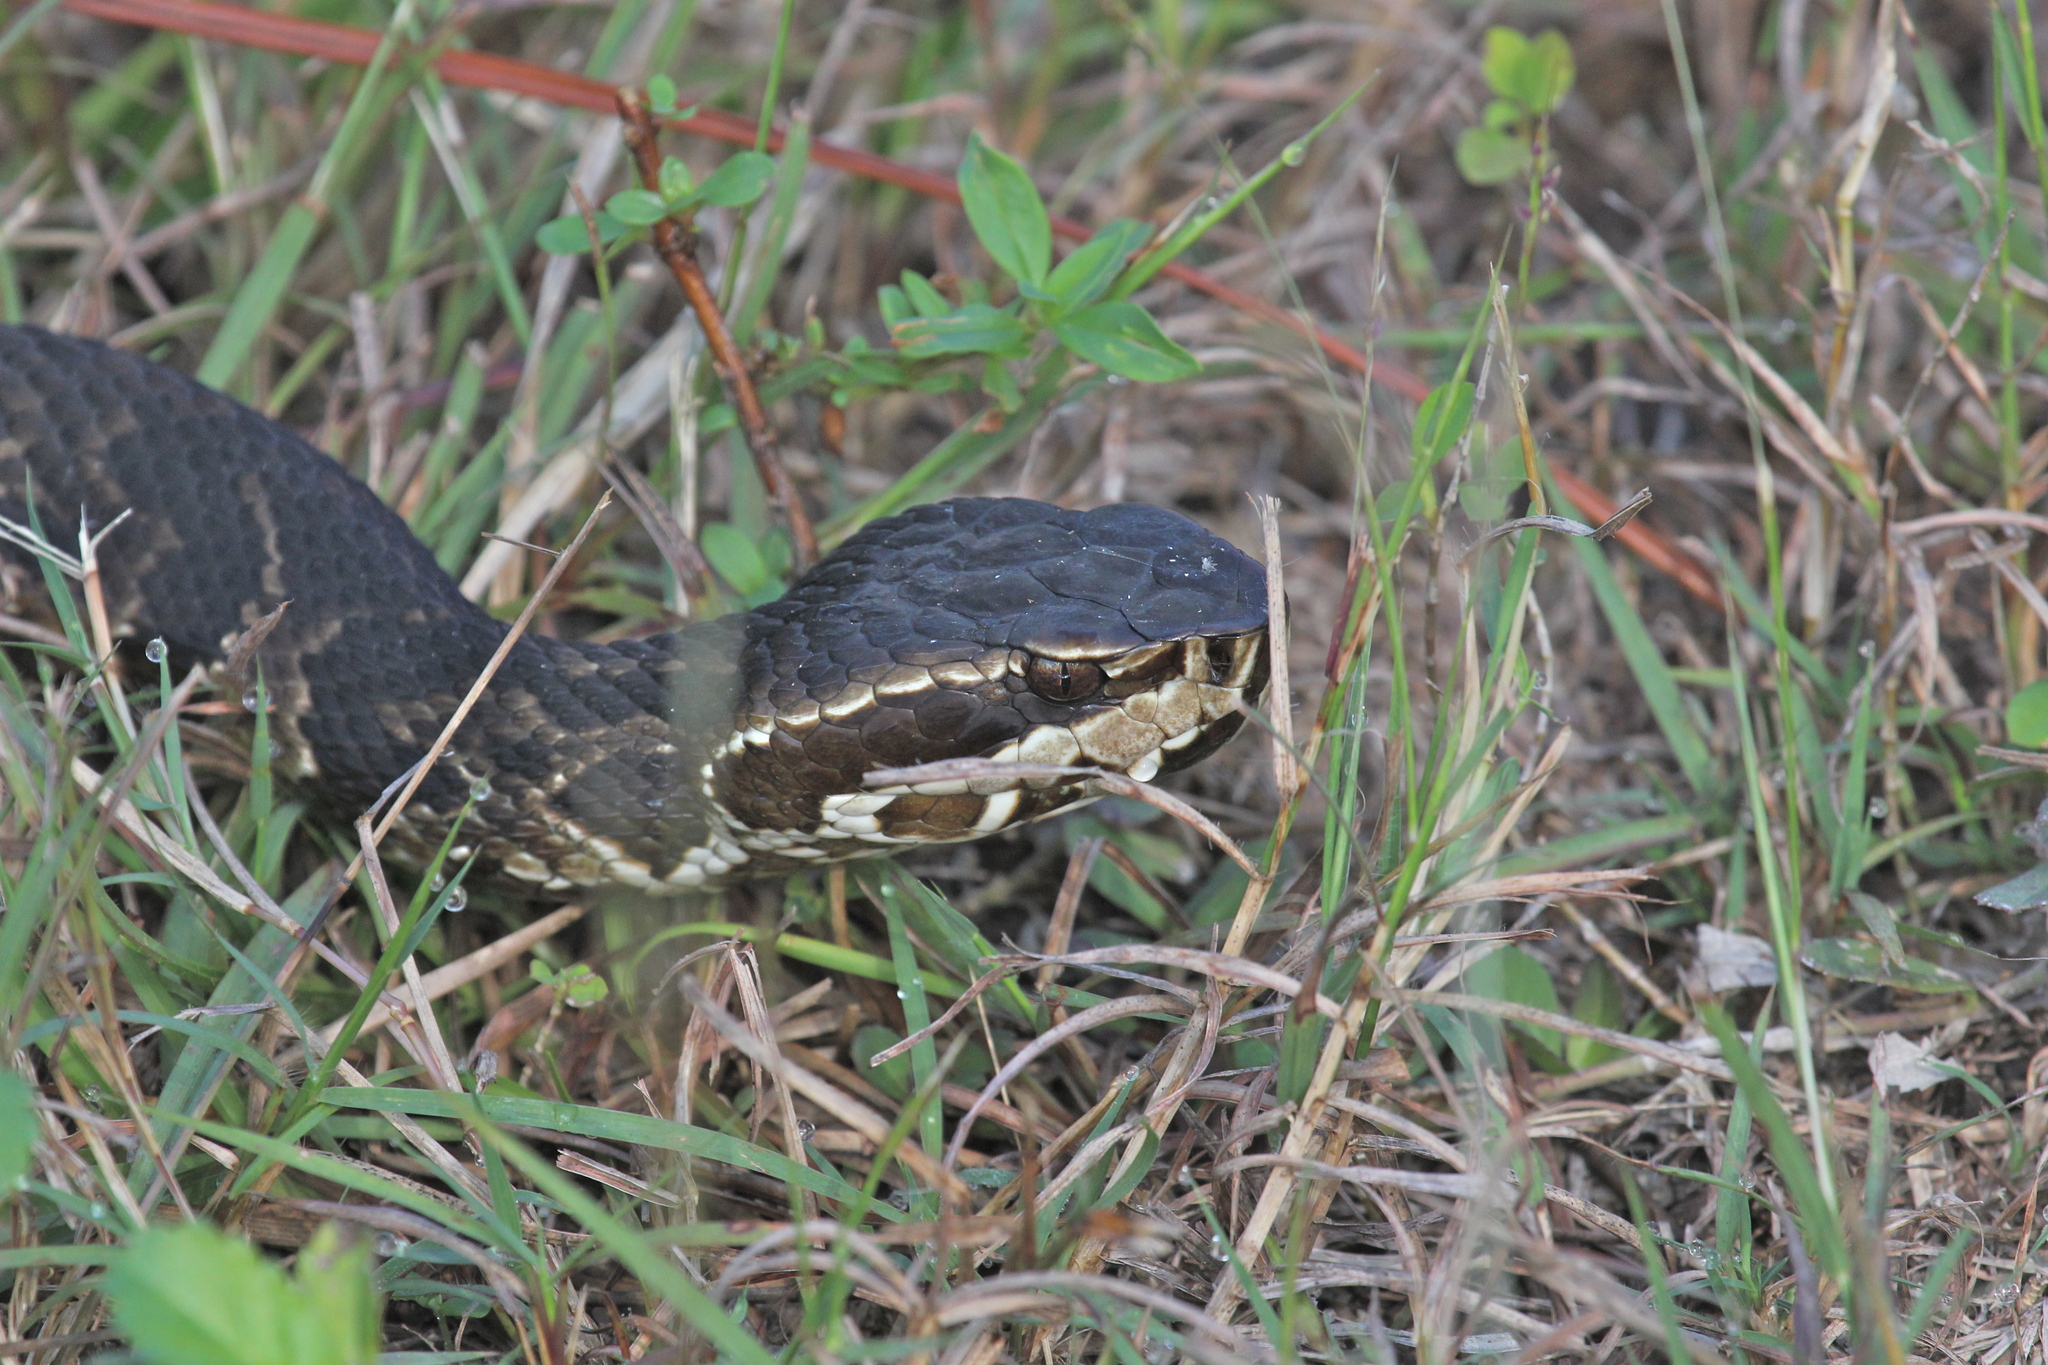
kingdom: Animalia
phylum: Chordata
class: Squamata
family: Viperidae
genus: Agkistrodon
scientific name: Agkistrodon conanti
